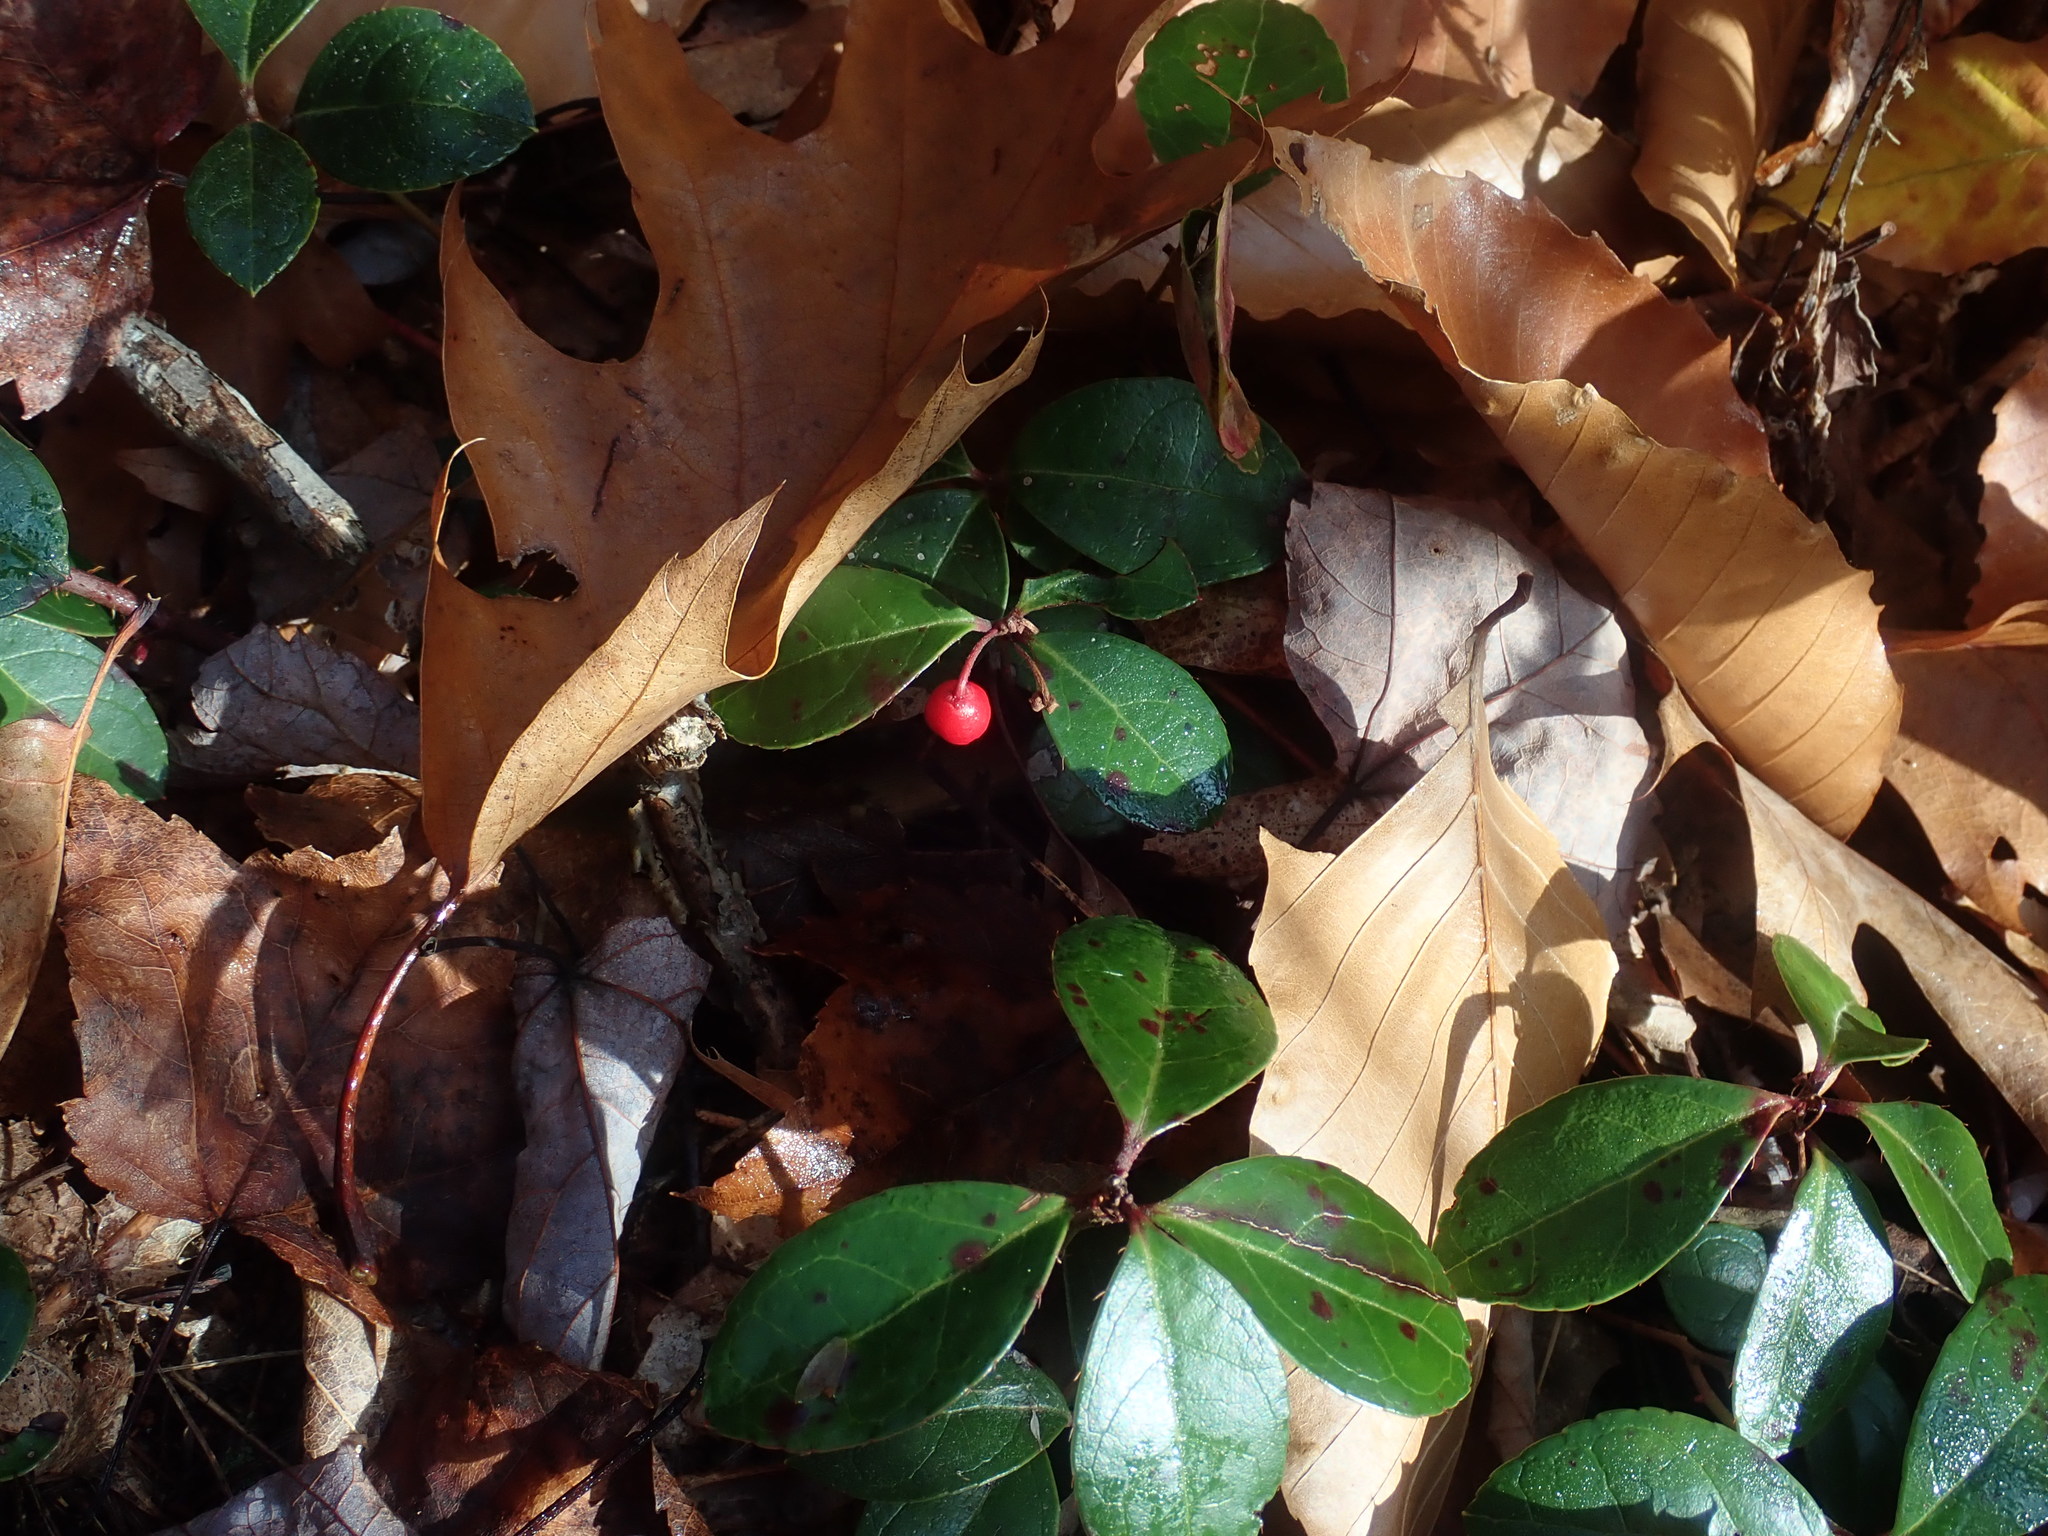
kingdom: Plantae
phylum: Tracheophyta
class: Magnoliopsida
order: Ericales
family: Ericaceae
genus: Gaultheria
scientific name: Gaultheria procumbens
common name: Checkerberry
